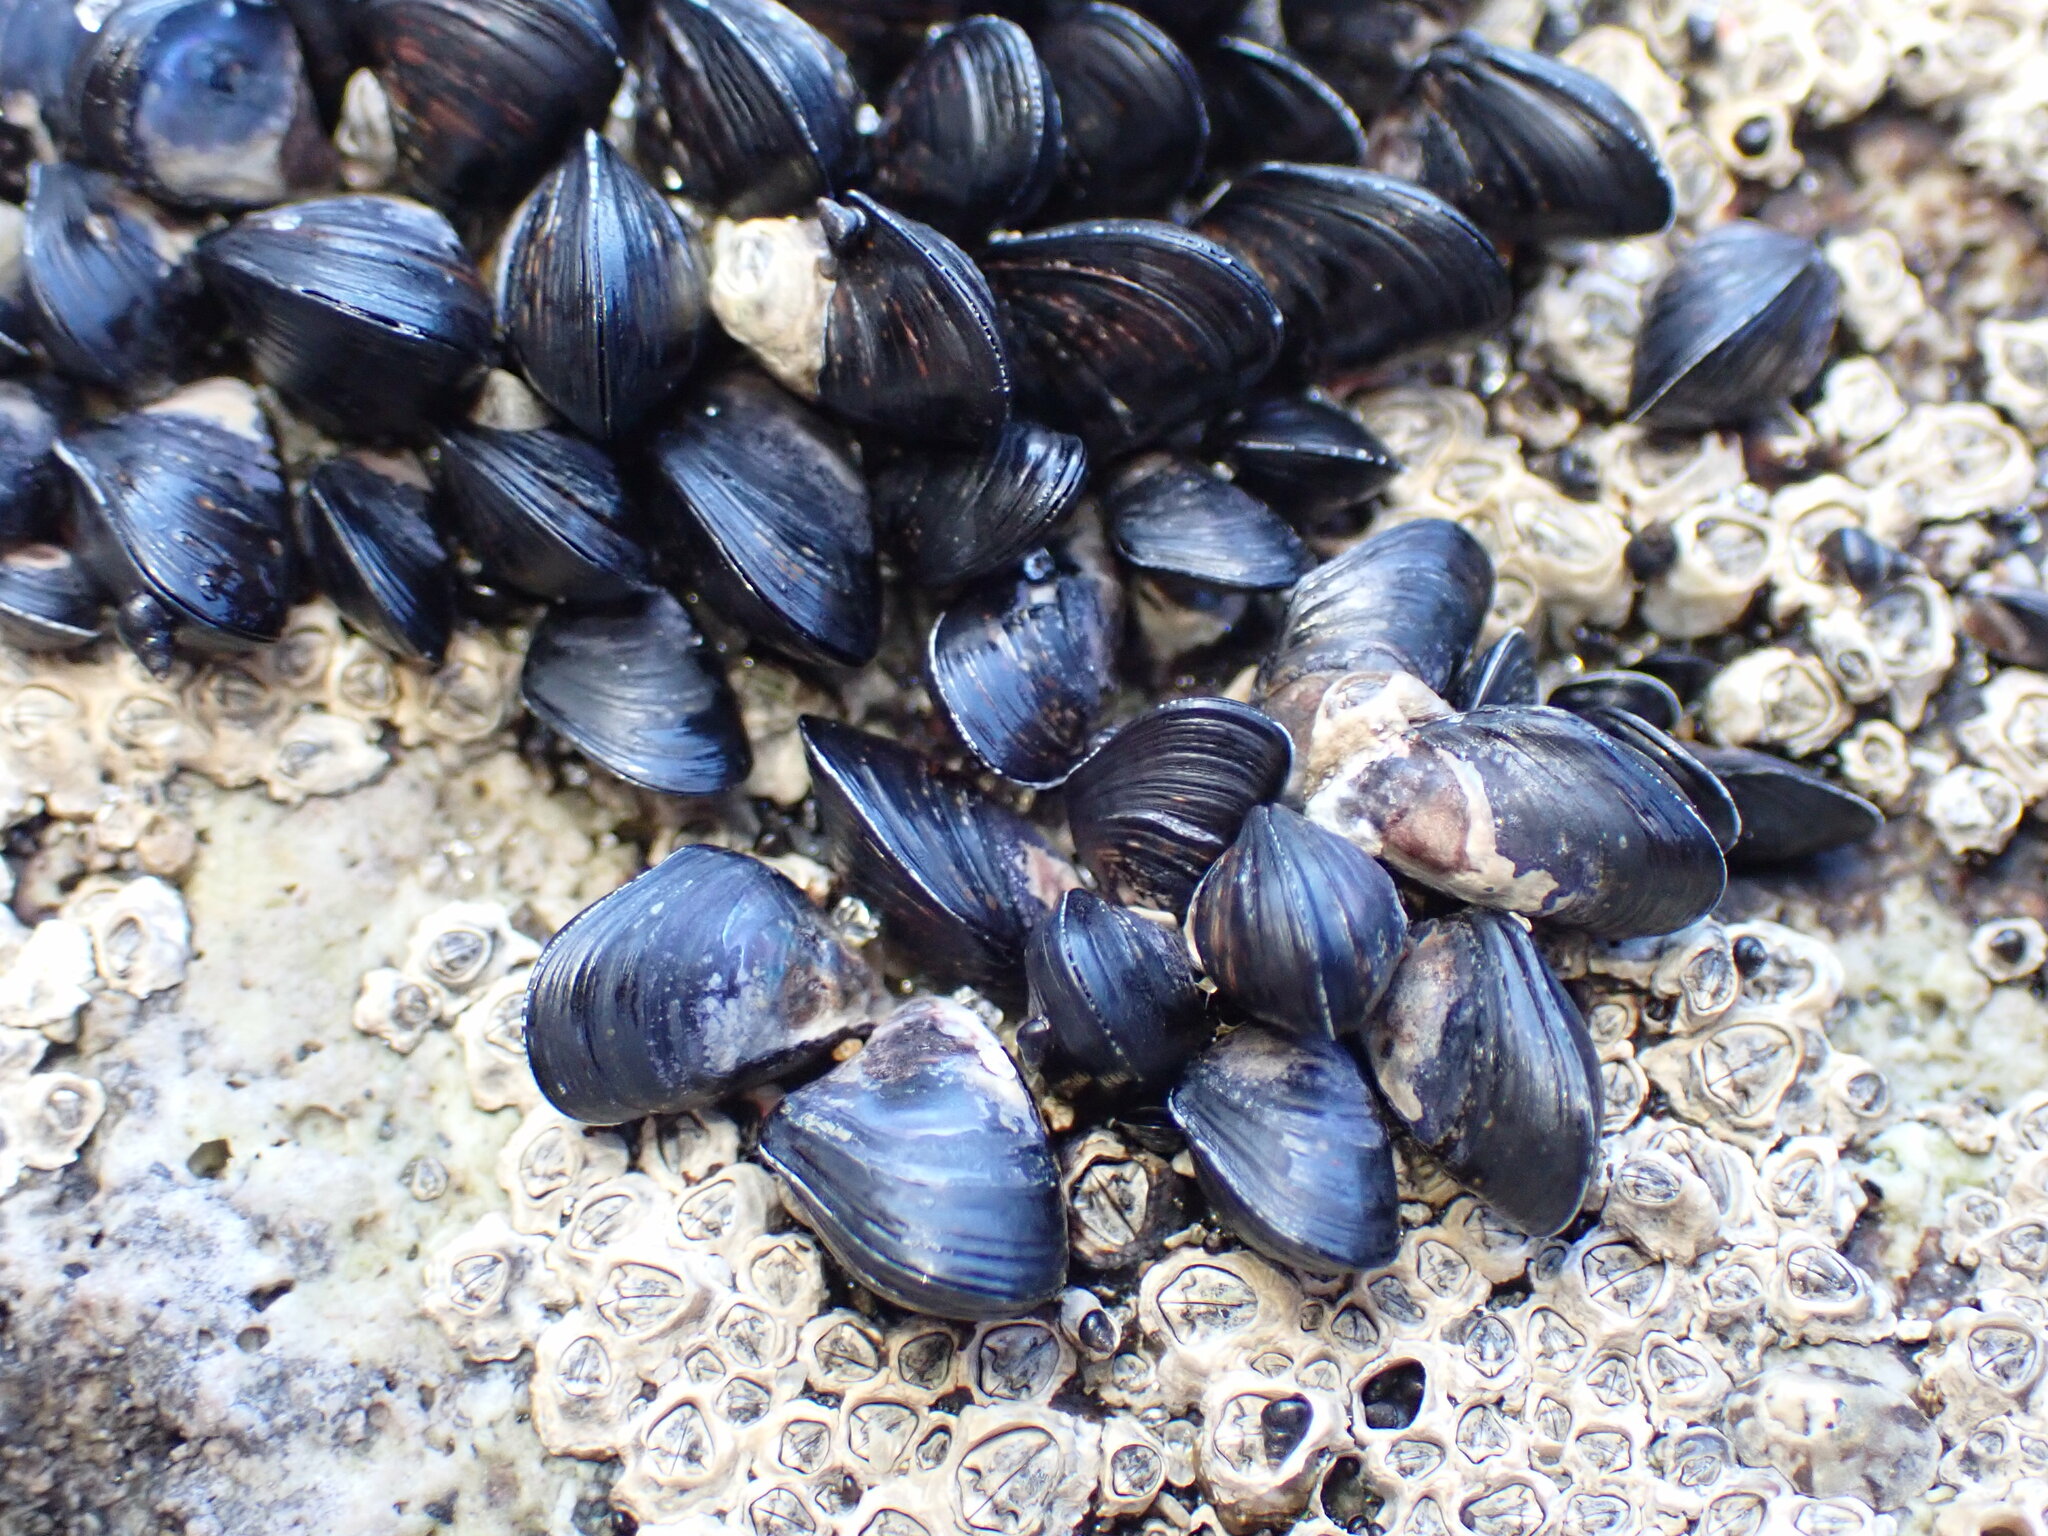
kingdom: Animalia
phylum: Mollusca
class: Bivalvia
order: Mytilida
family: Mytilidae
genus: Xenostrobus
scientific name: Xenostrobus neozelanicus
